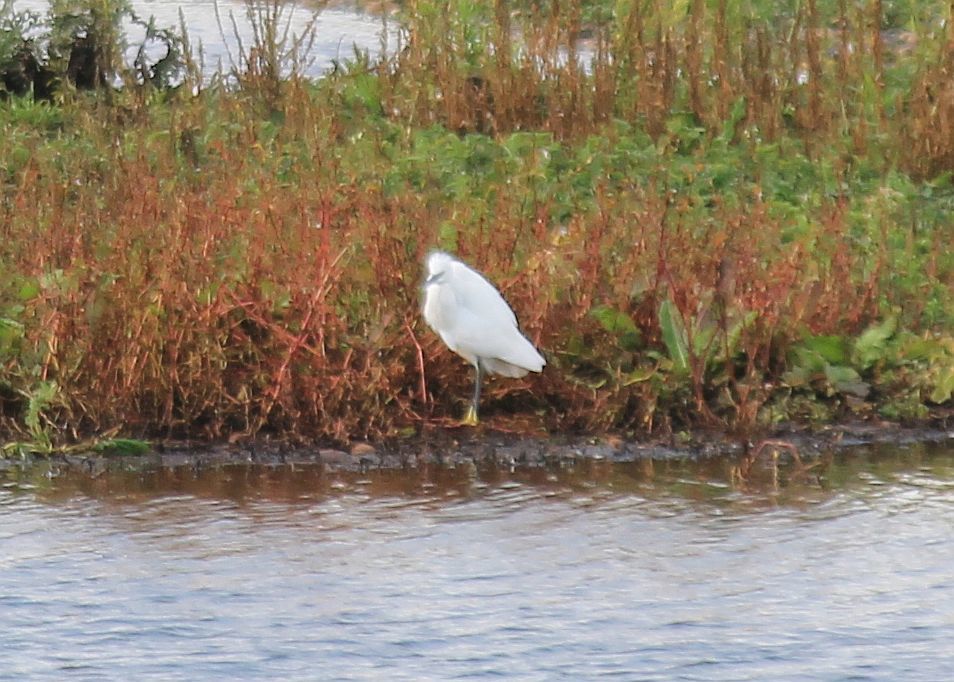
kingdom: Animalia
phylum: Chordata
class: Aves
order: Pelecaniformes
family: Ardeidae
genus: Egretta
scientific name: Egretta garzetta
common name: Little egret
